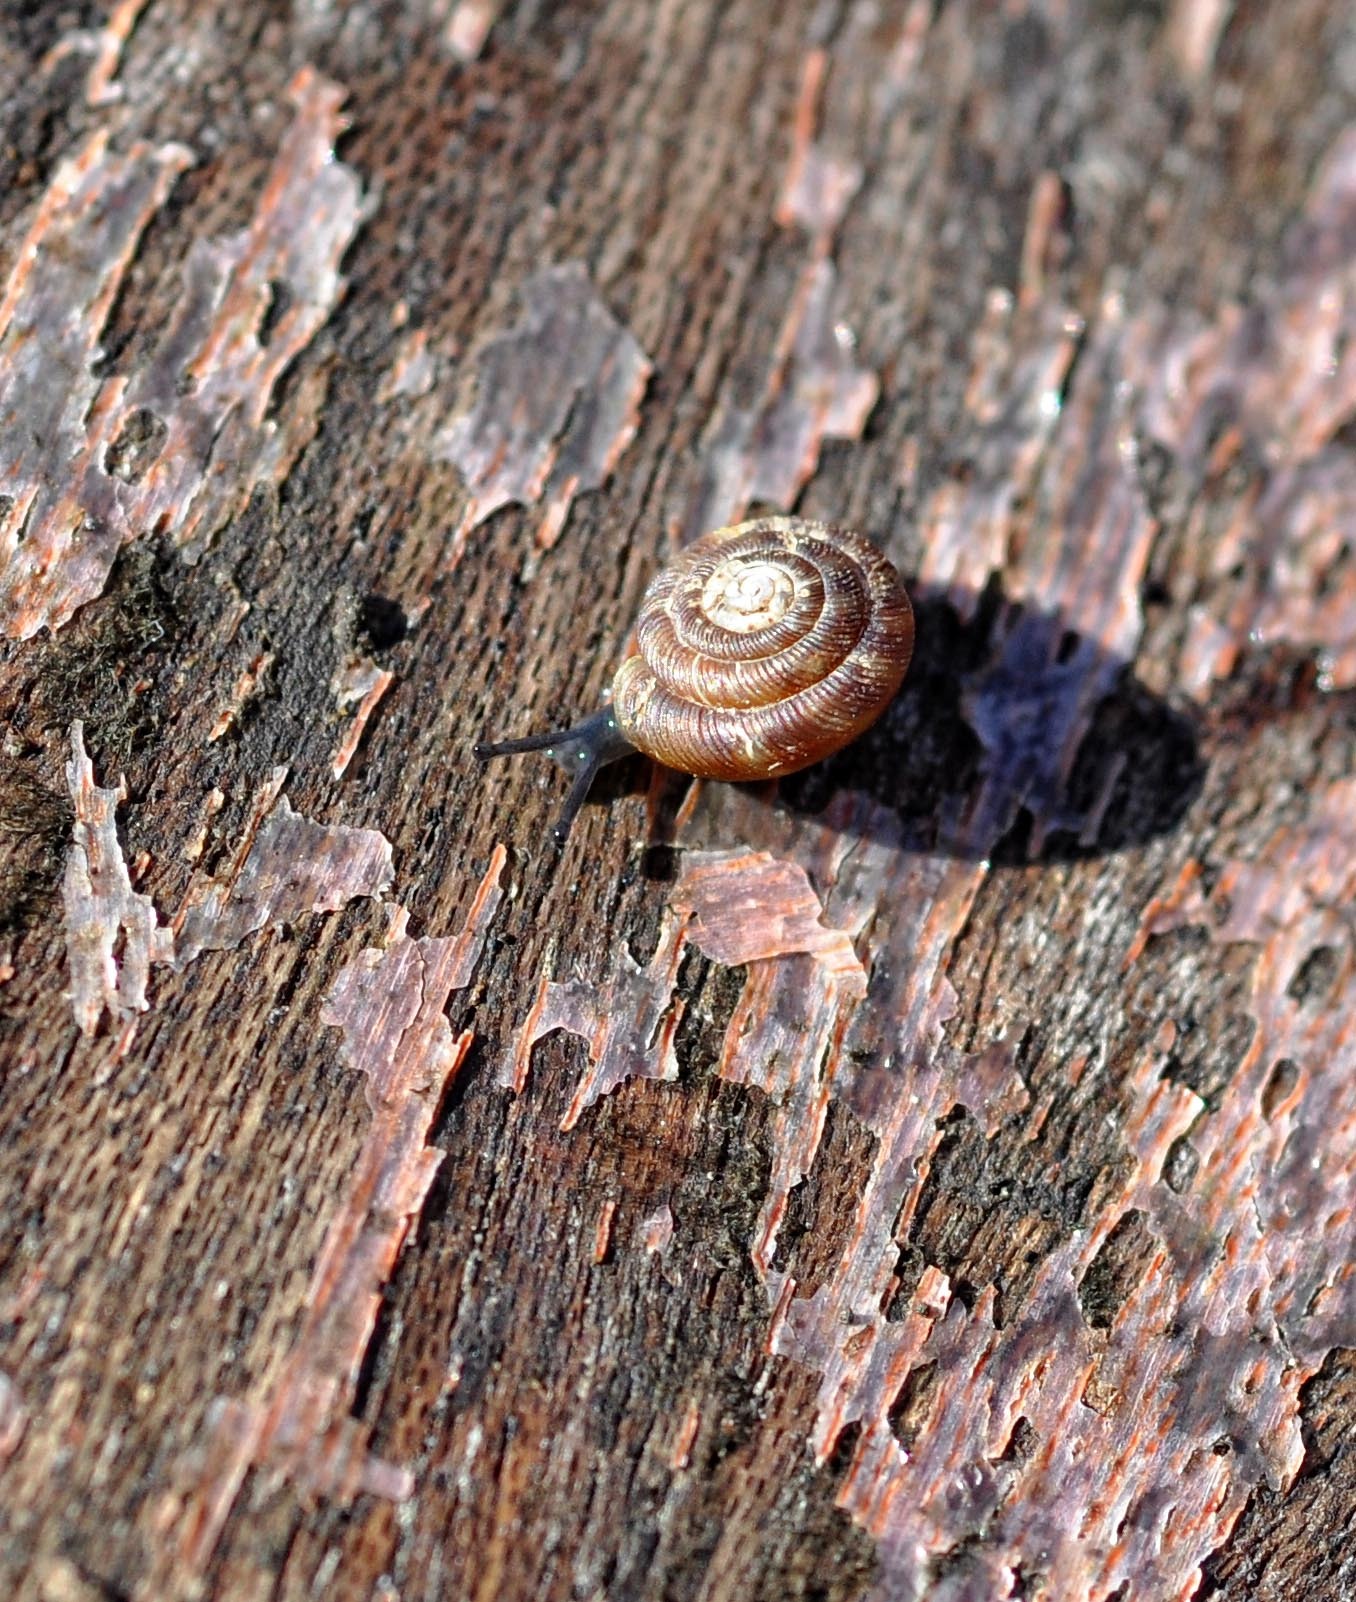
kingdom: Animalia
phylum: Mollusca
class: Gastropoda
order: Stylommatophora
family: Discidae
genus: Discus
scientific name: Discus rotundatus
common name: Rounded snail
